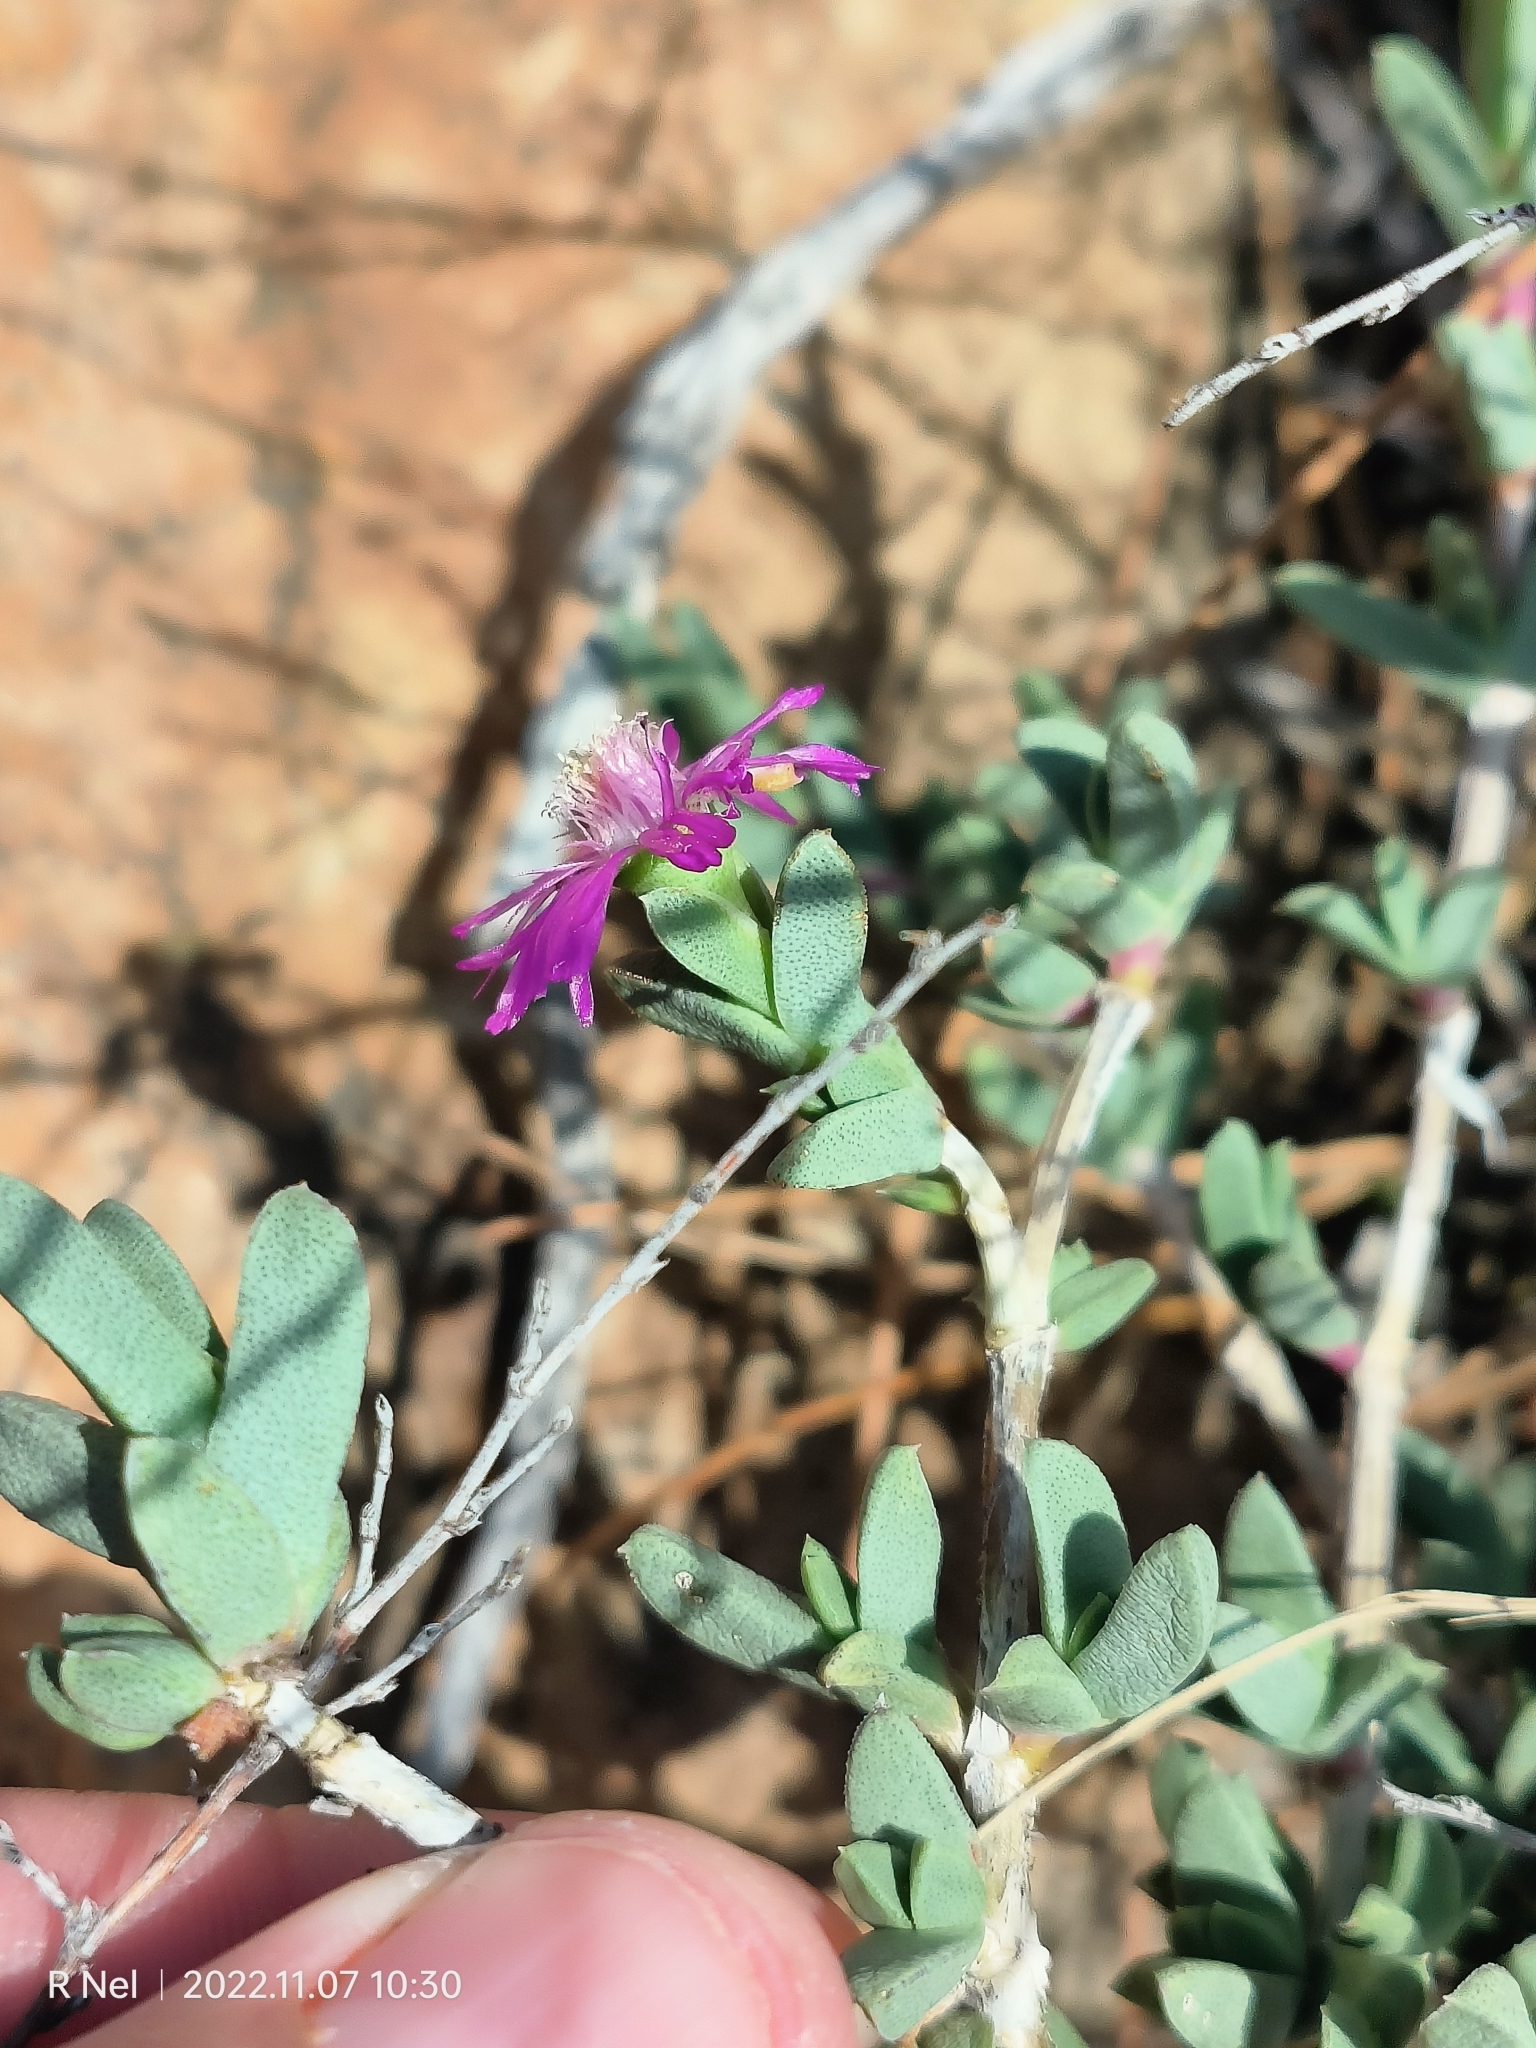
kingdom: Plantae
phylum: Tracheophyta
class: Magnoliopsida
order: Caryophyllales
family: Aizoaceae
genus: Ruschia
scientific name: Ruschia putterillii
